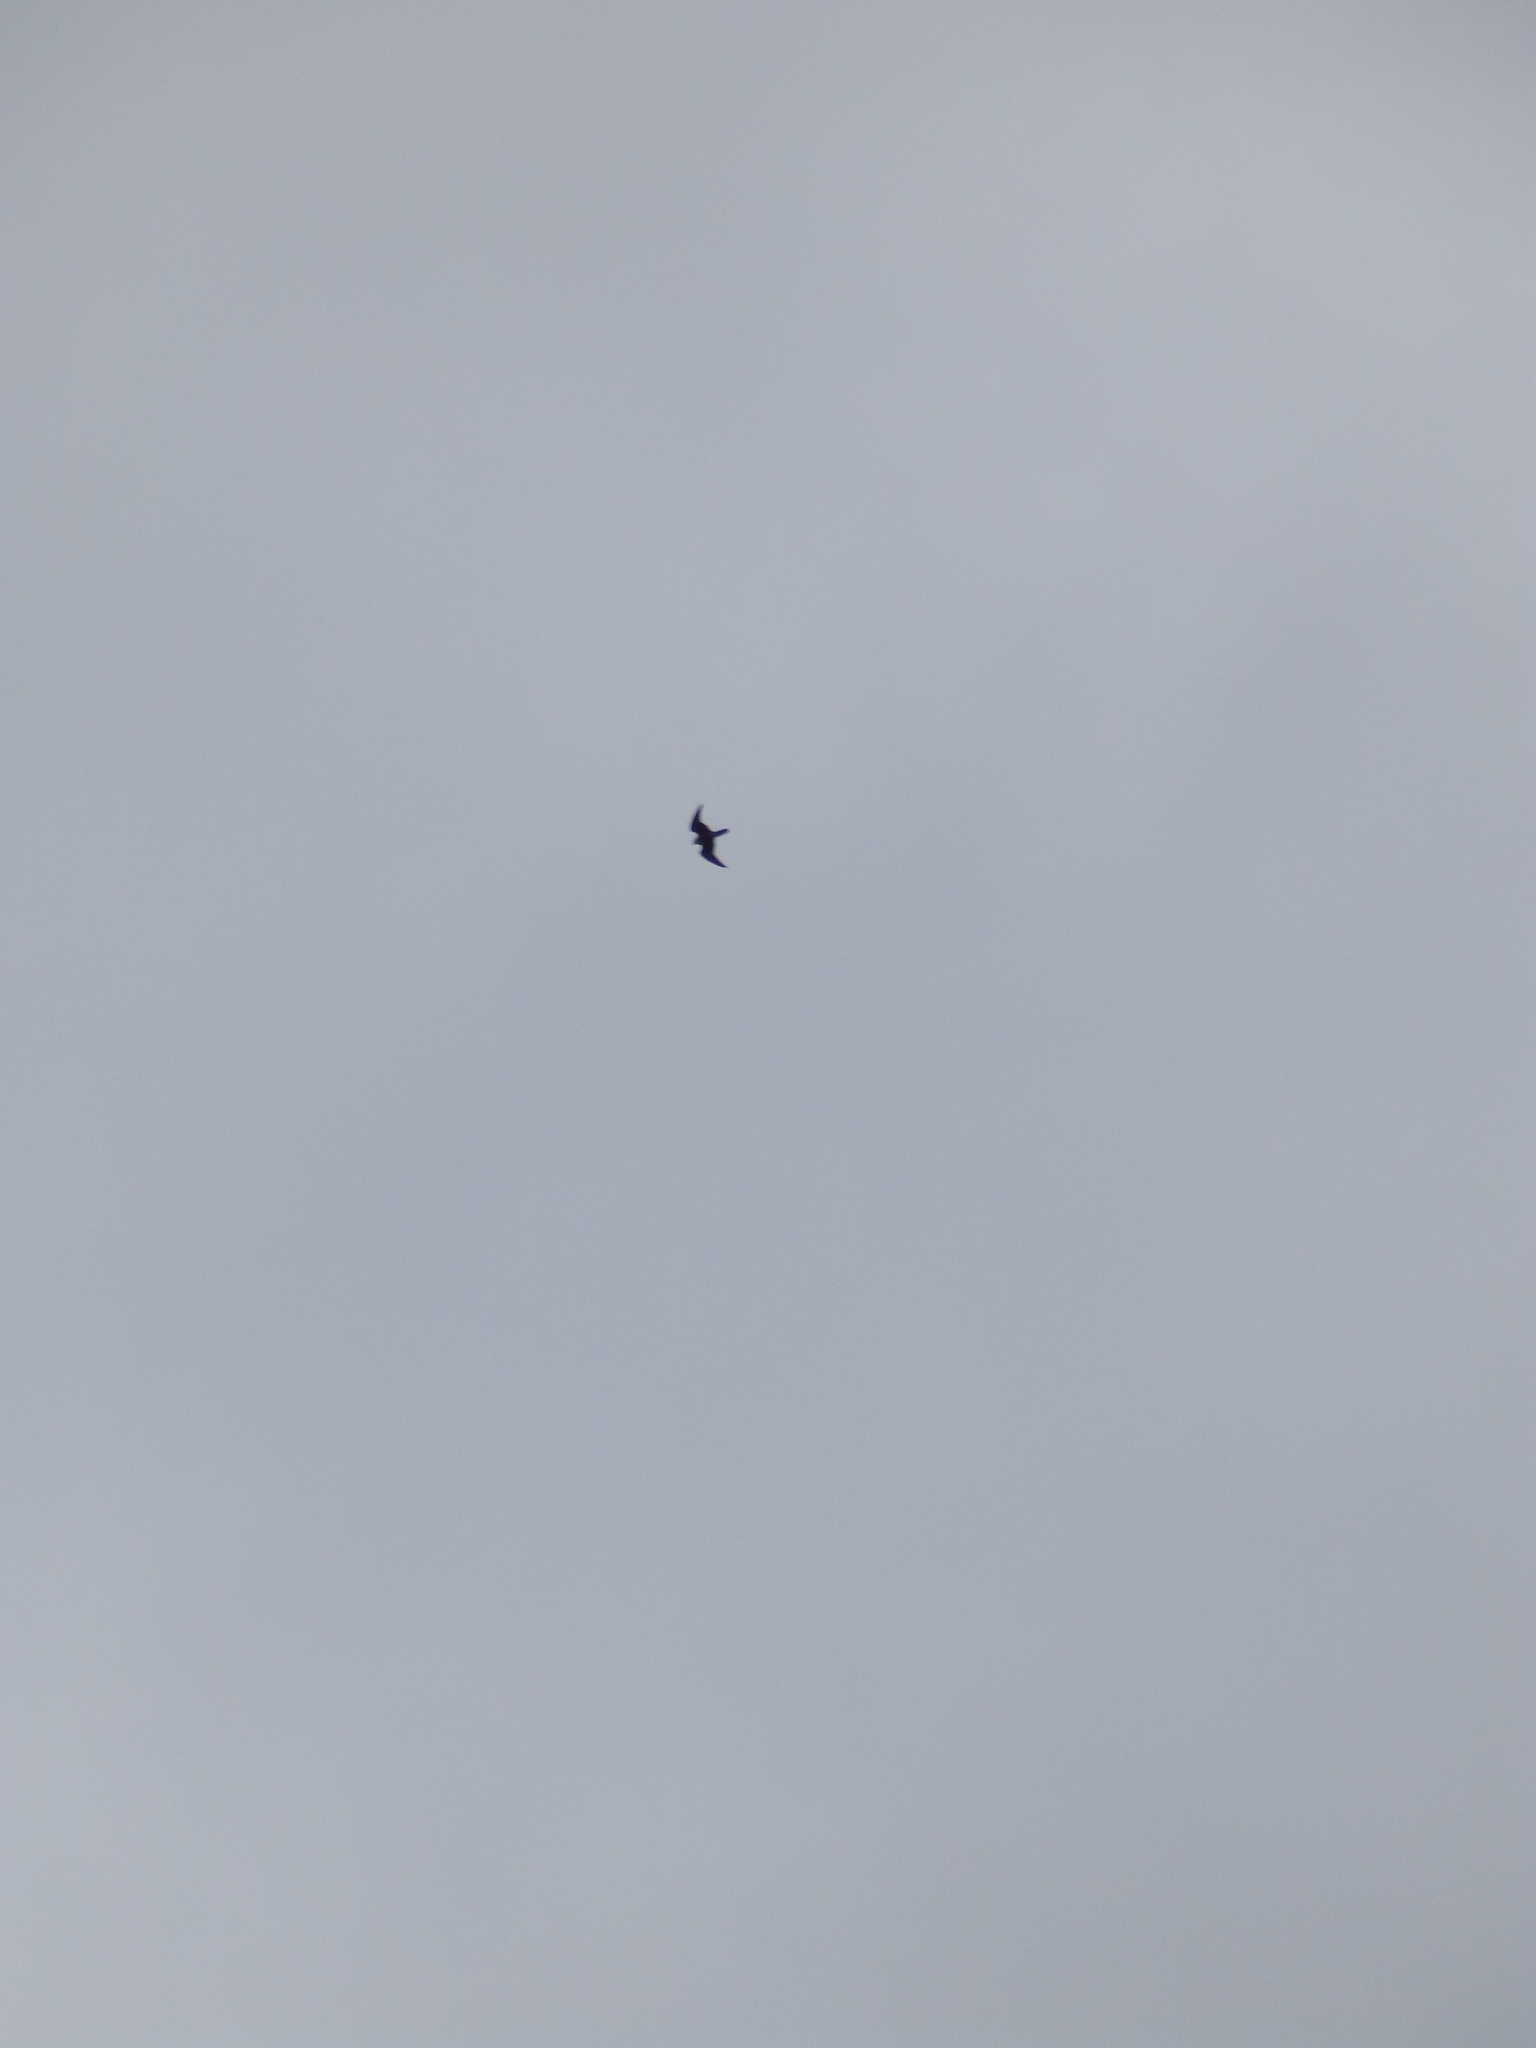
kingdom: Animalia
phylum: Chordata
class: Aves
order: Falconiformes
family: Falconidae
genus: Falco
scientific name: Falco peregrinus
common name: Peregrine falcon
